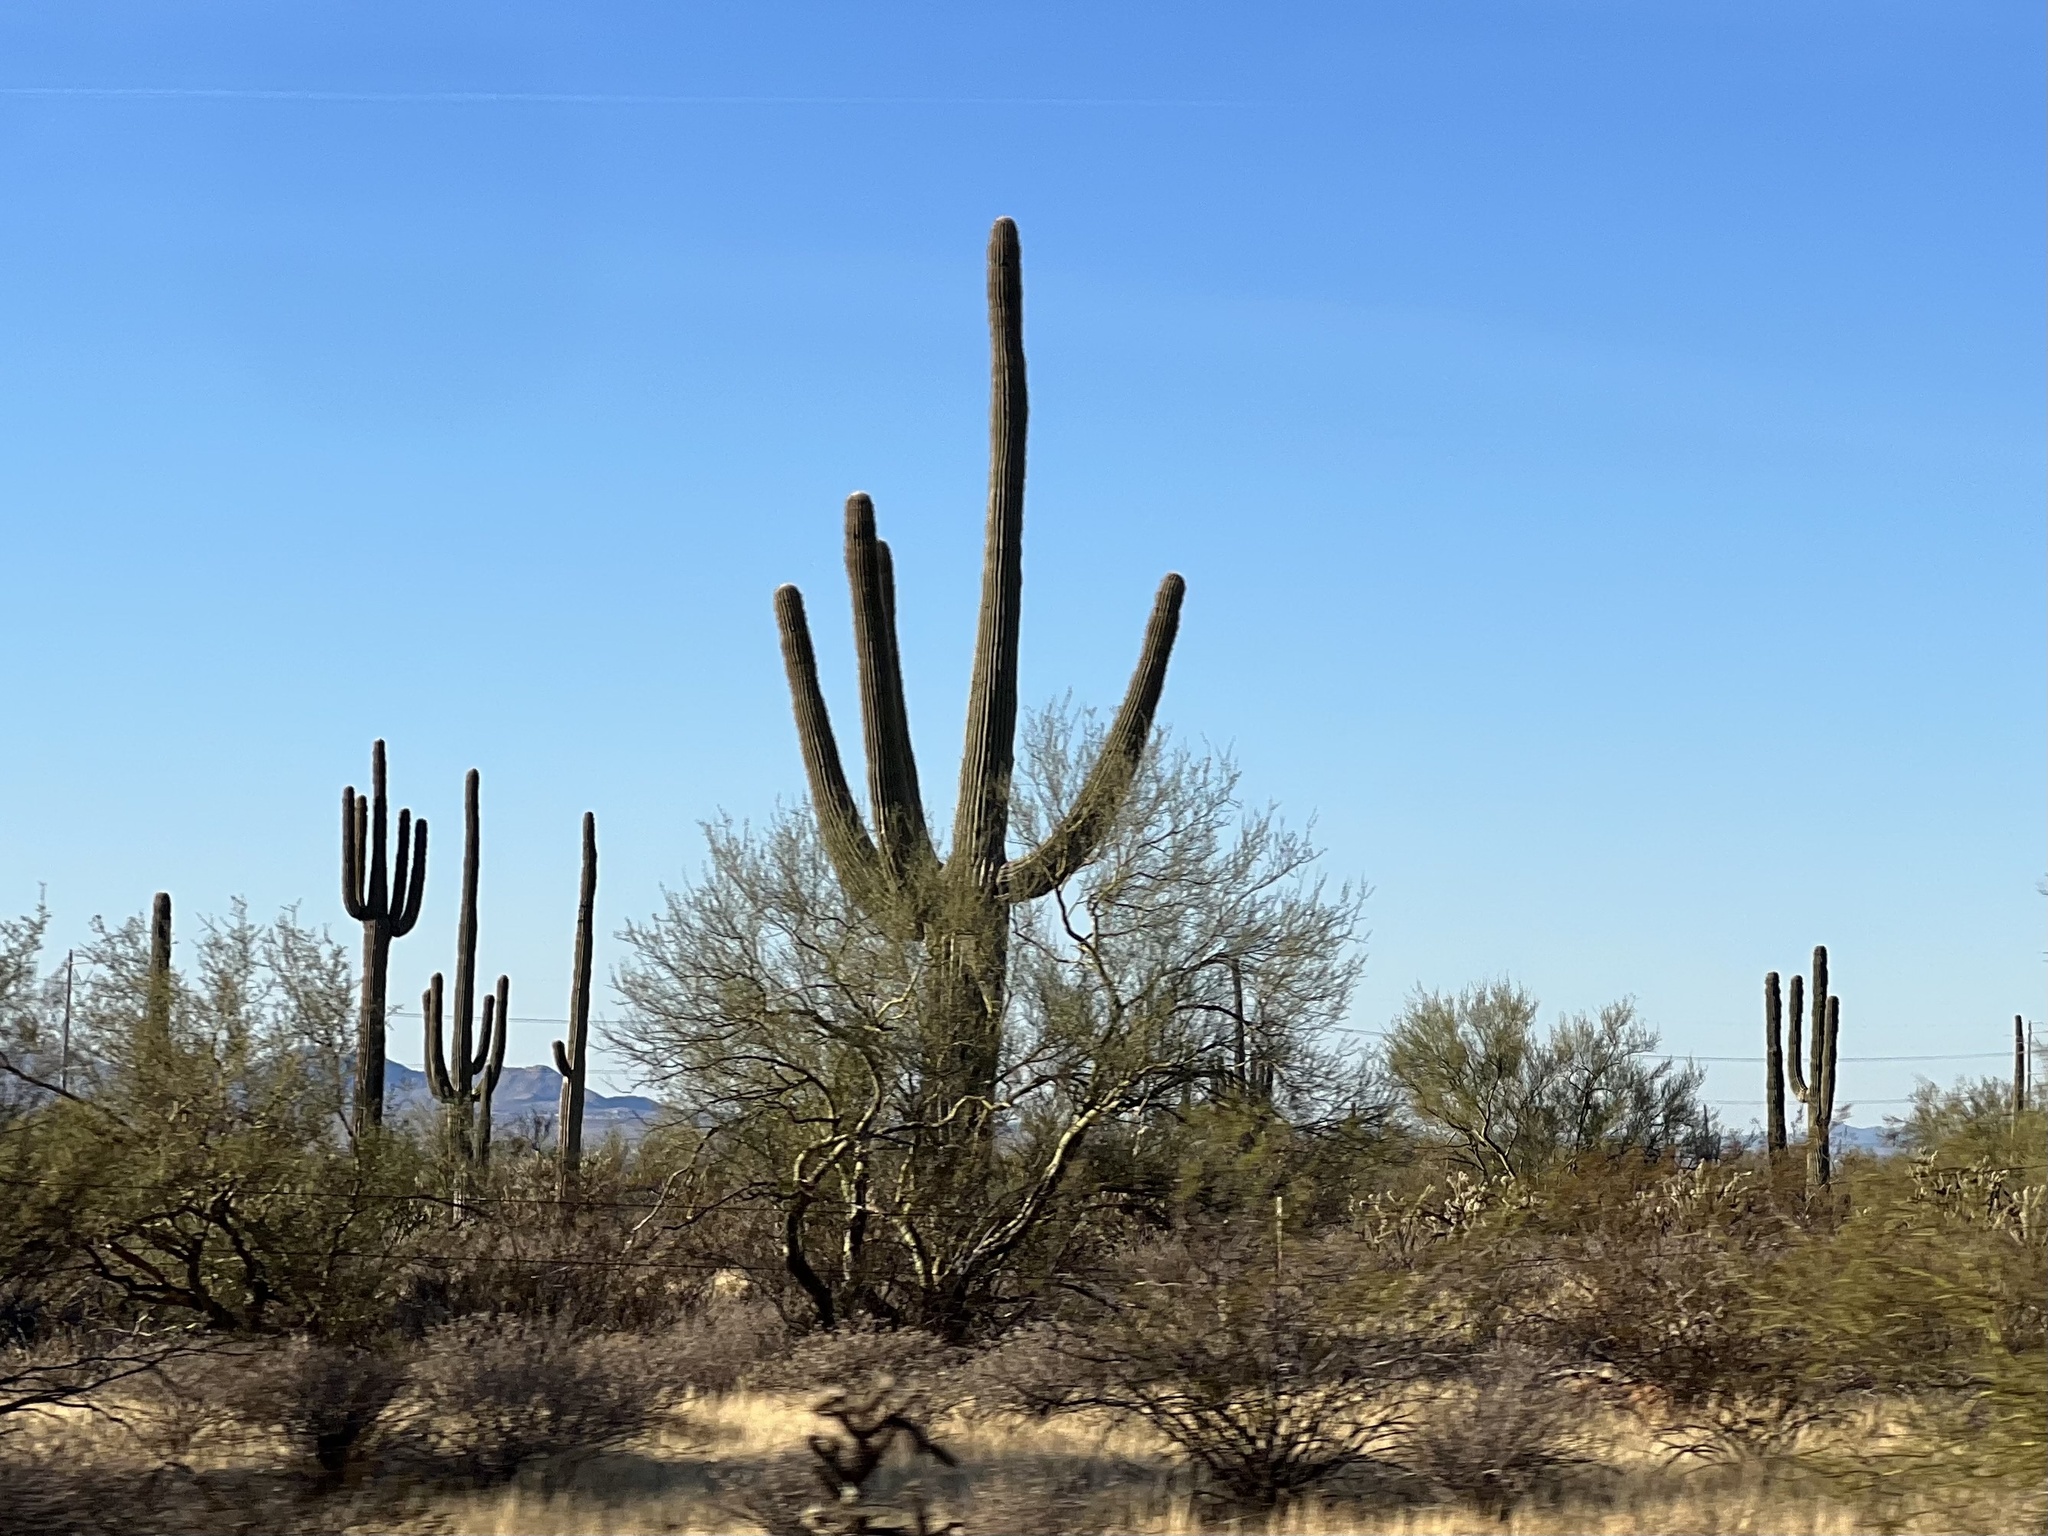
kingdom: Plantae
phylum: Tracheophyta
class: Magnoliopsida
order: Caryophyllales
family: Cactaceae
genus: Carnegiea
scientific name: Carnegiea gigantea
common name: Saguaro
